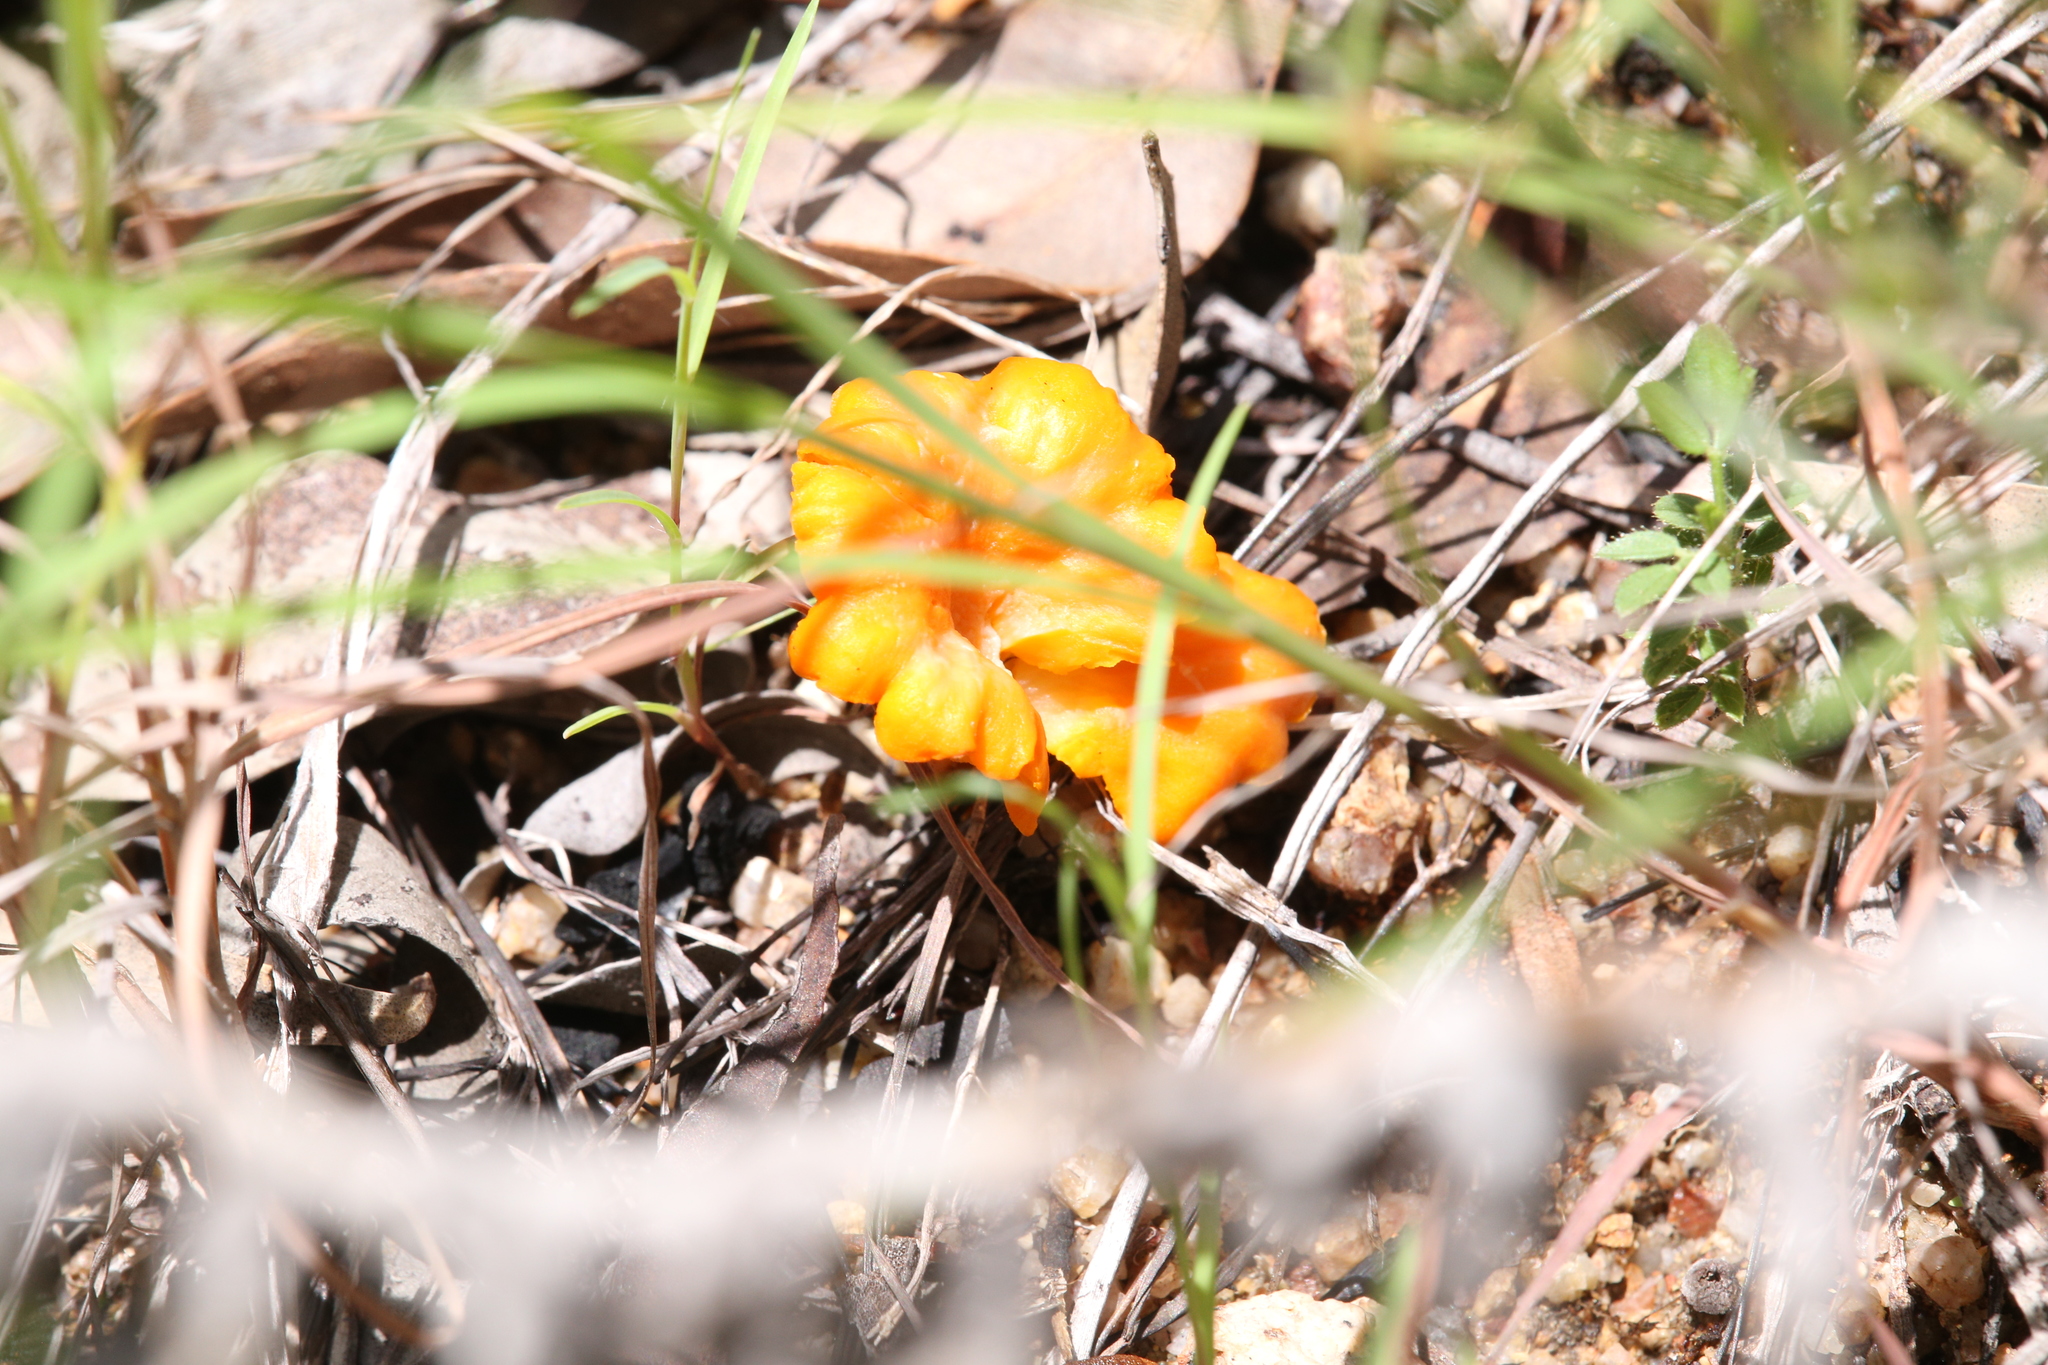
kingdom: Fungi
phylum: Basidiomycota
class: Agaricomycetes
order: Cantharellales
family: Hydnaceae
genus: Cantharellus
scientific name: Cantharellus
